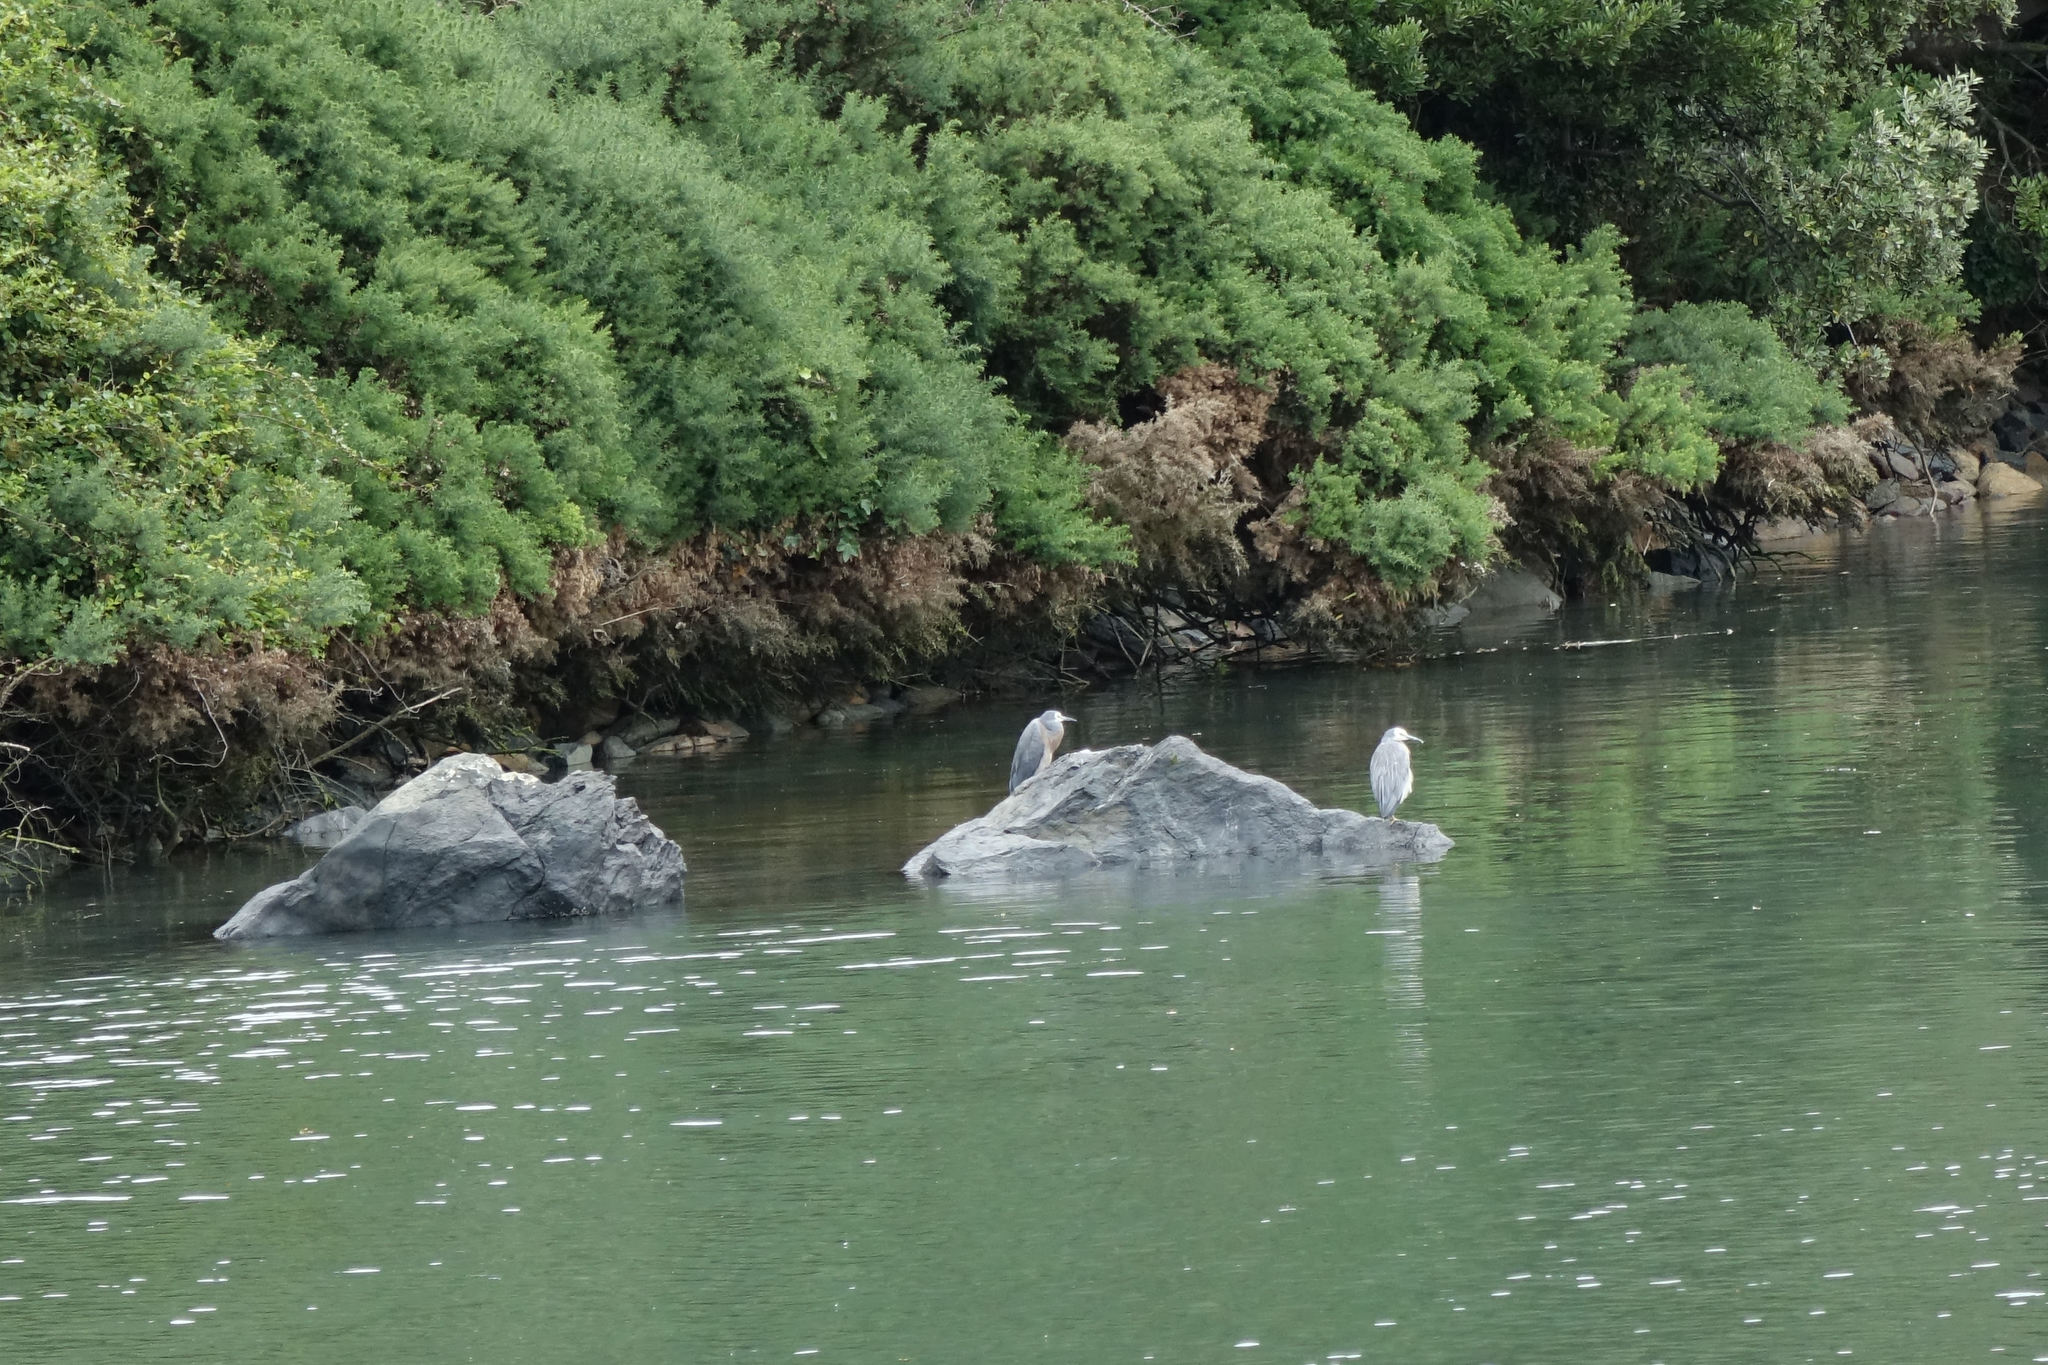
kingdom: Animalia
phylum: Chordata
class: Aves
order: Pelecaniformes
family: Ardeidae
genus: Egretta
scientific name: Egretta novaehollandiae
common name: White-faced heron
